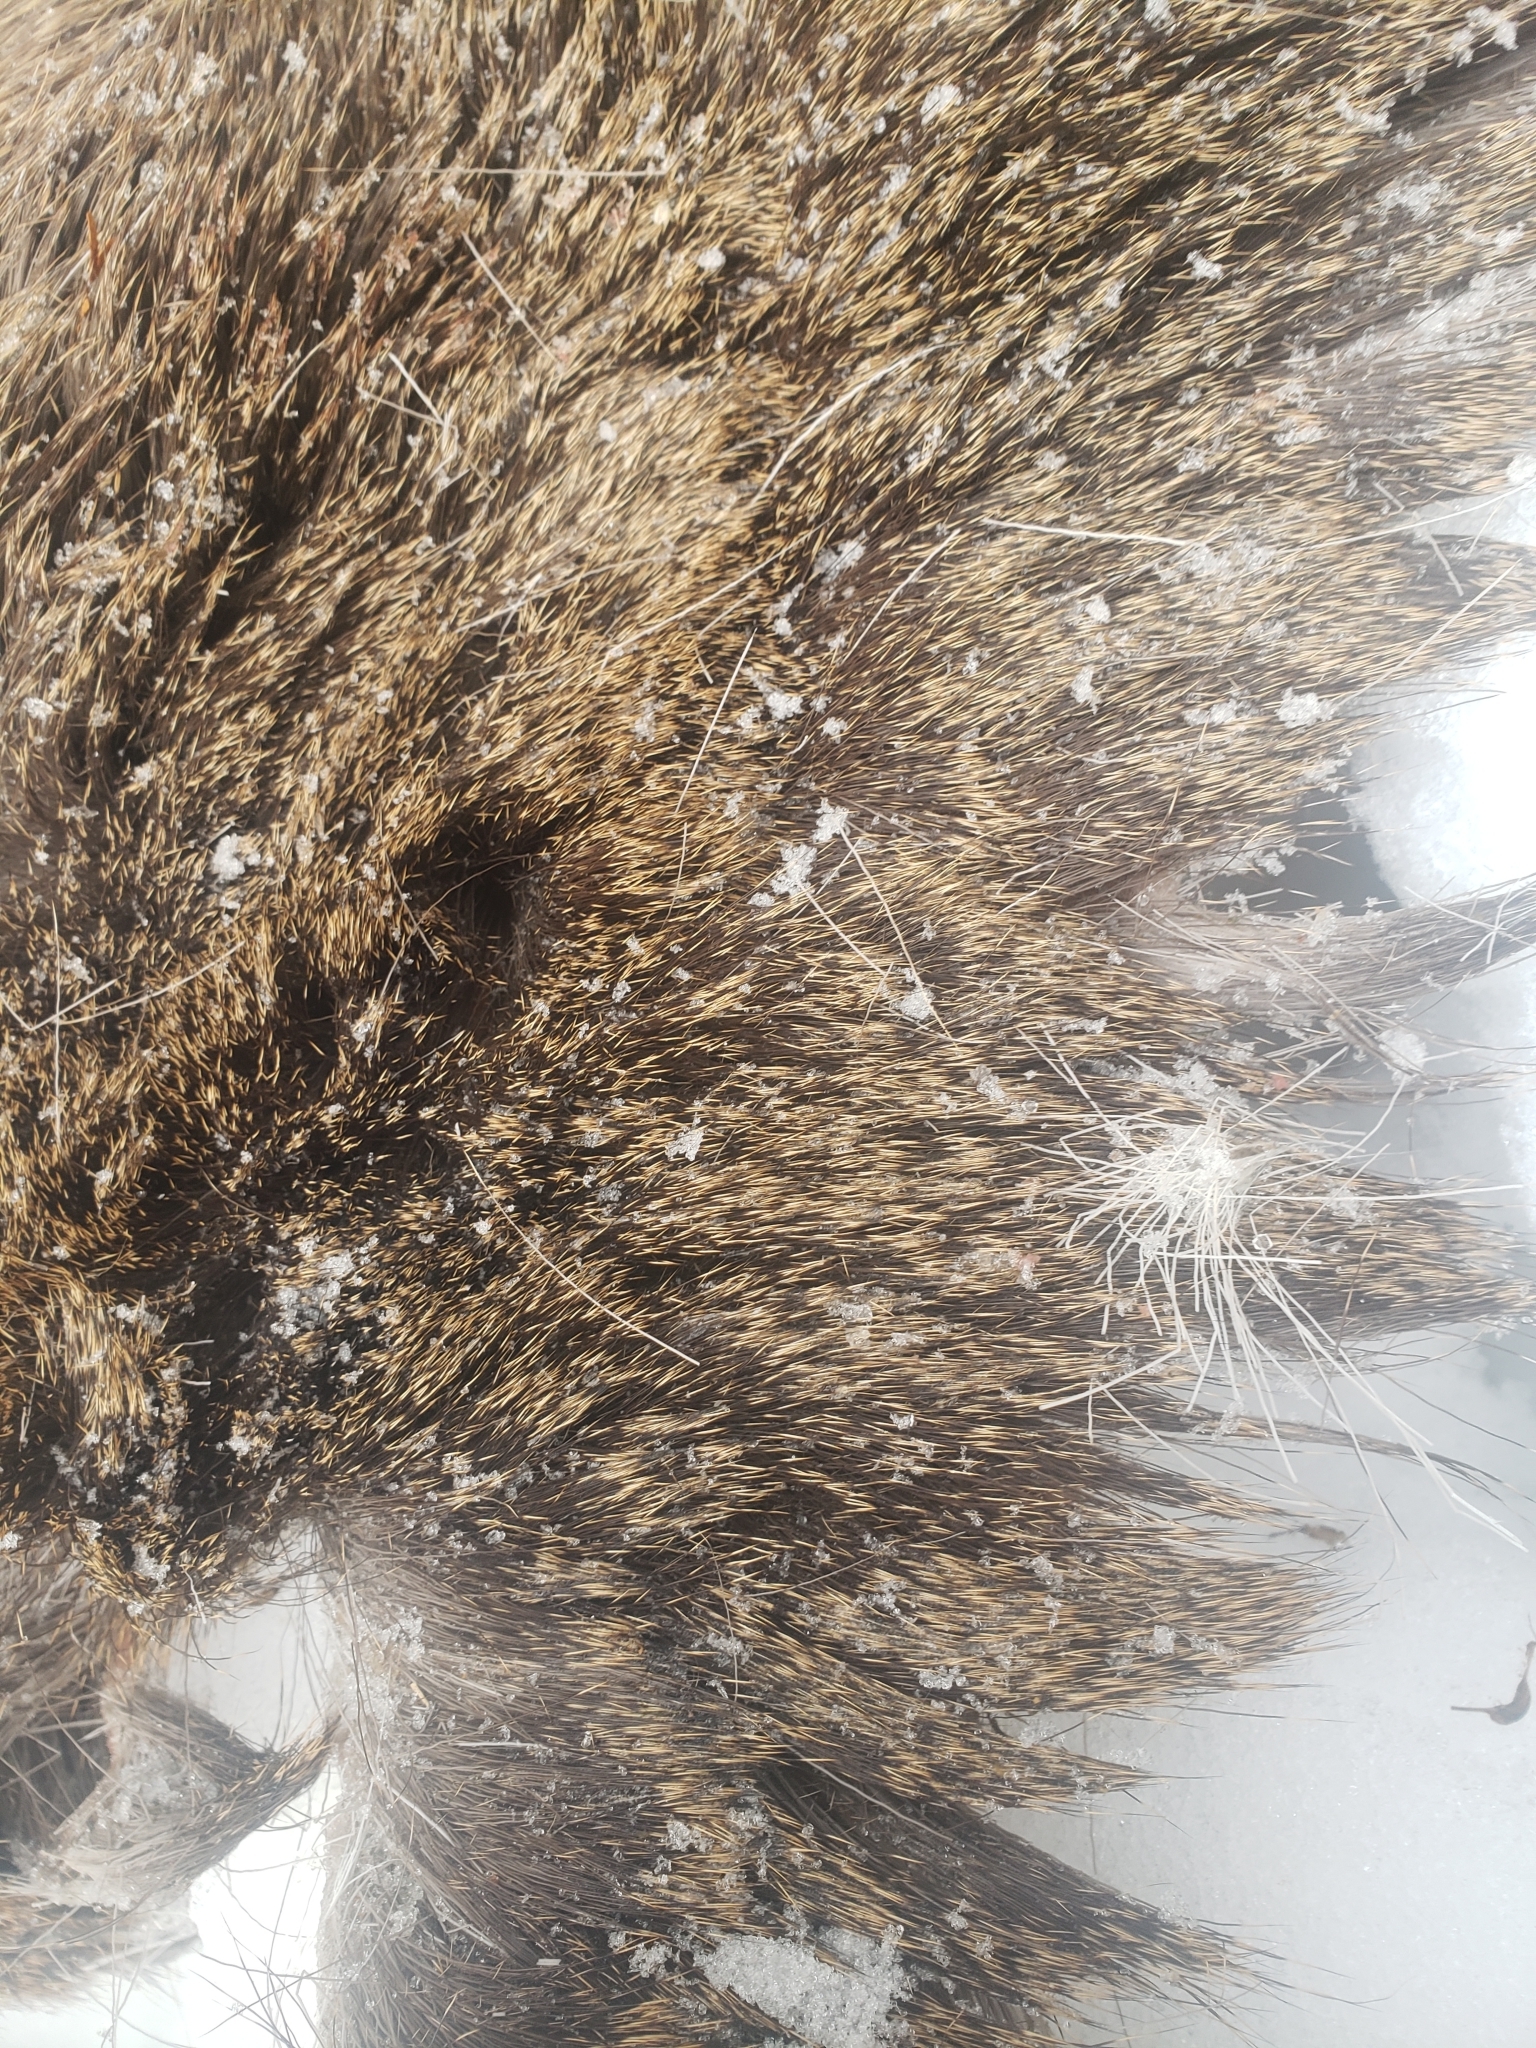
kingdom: Animalia
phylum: Chordata
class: Mammalia
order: Artiodactyla
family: Cervidae
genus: Odocoileus
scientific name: Odocoileus virginianus
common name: White-tailed deer
